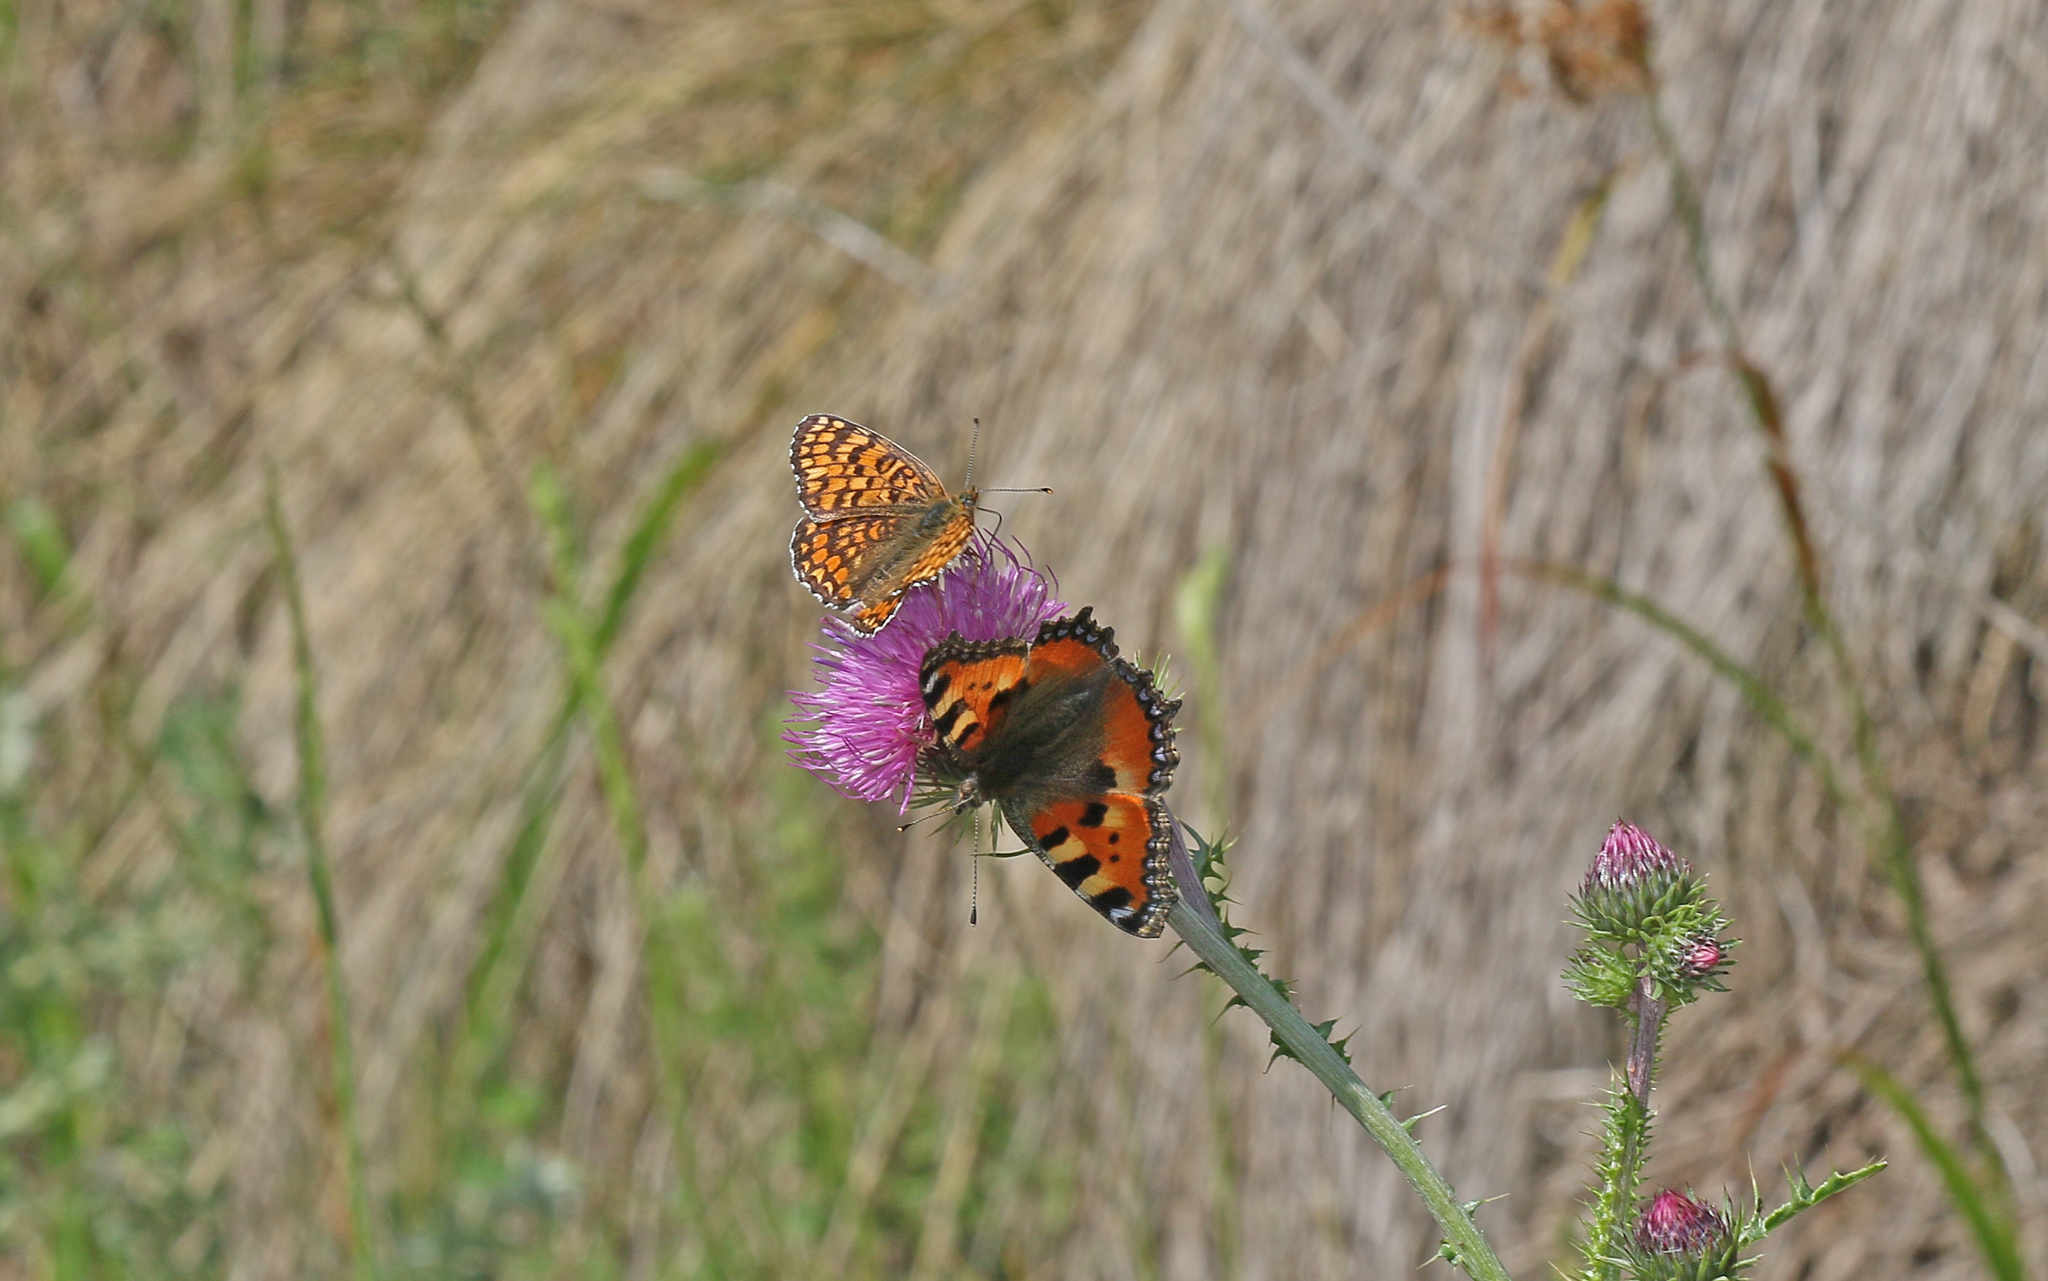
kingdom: Animalia
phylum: Arthropoda
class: Insecta
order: Lepidoptera
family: Nymphalidae
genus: Aglais
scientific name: Aglais urticae
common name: Small tortoiseshell
